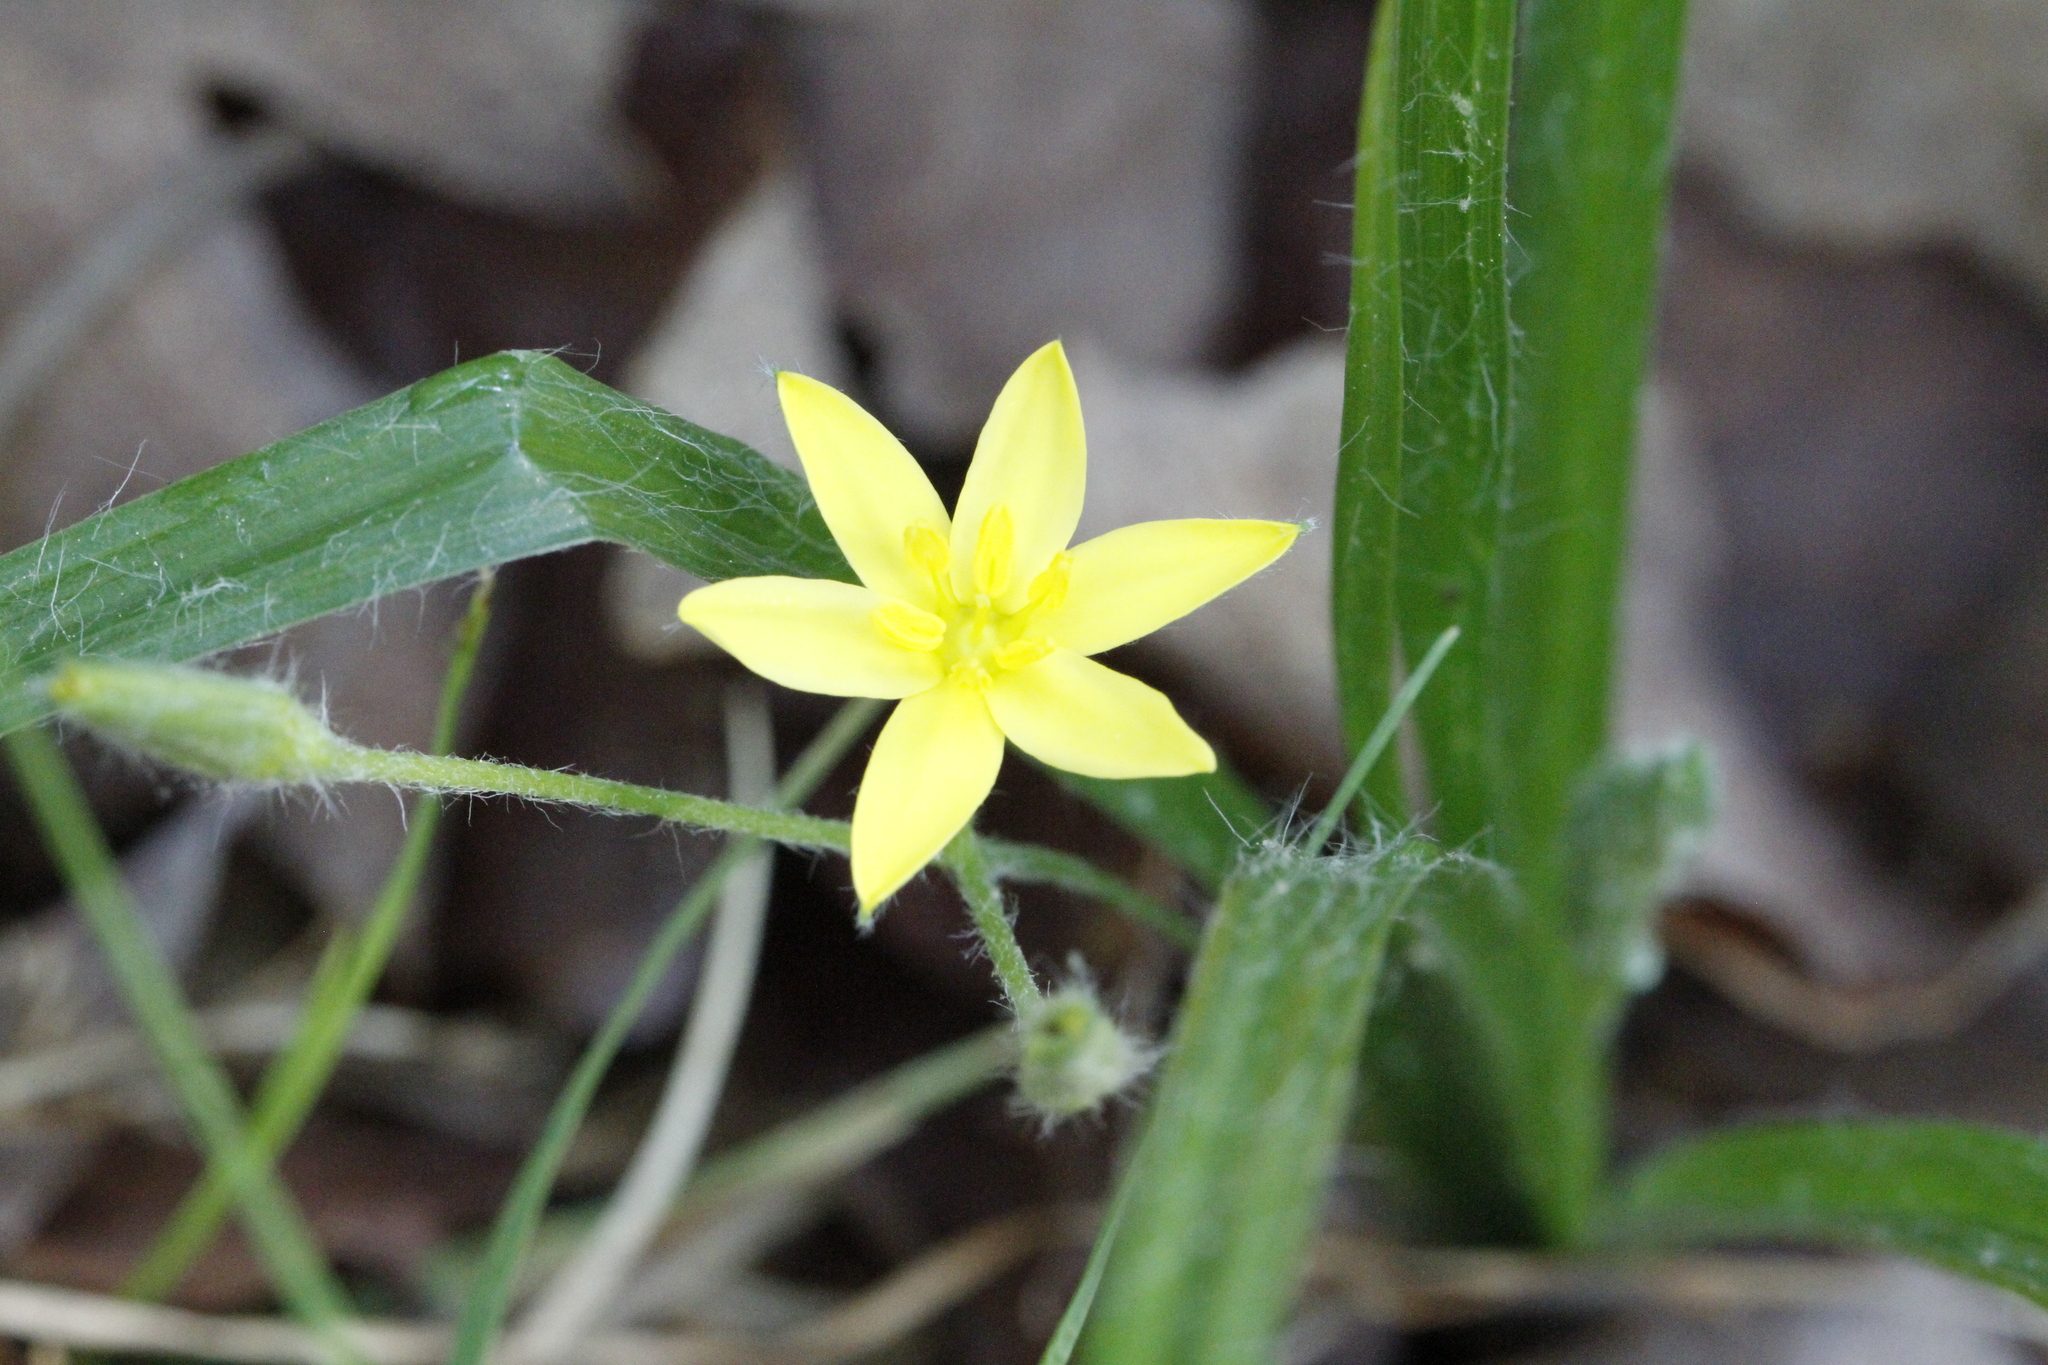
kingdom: Plantae
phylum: Tracheophyta
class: Liliopsida
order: Asparagales
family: Hypoxidaceae
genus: Hypoxis
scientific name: Hypoxis hirsuta
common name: Common goldstar
